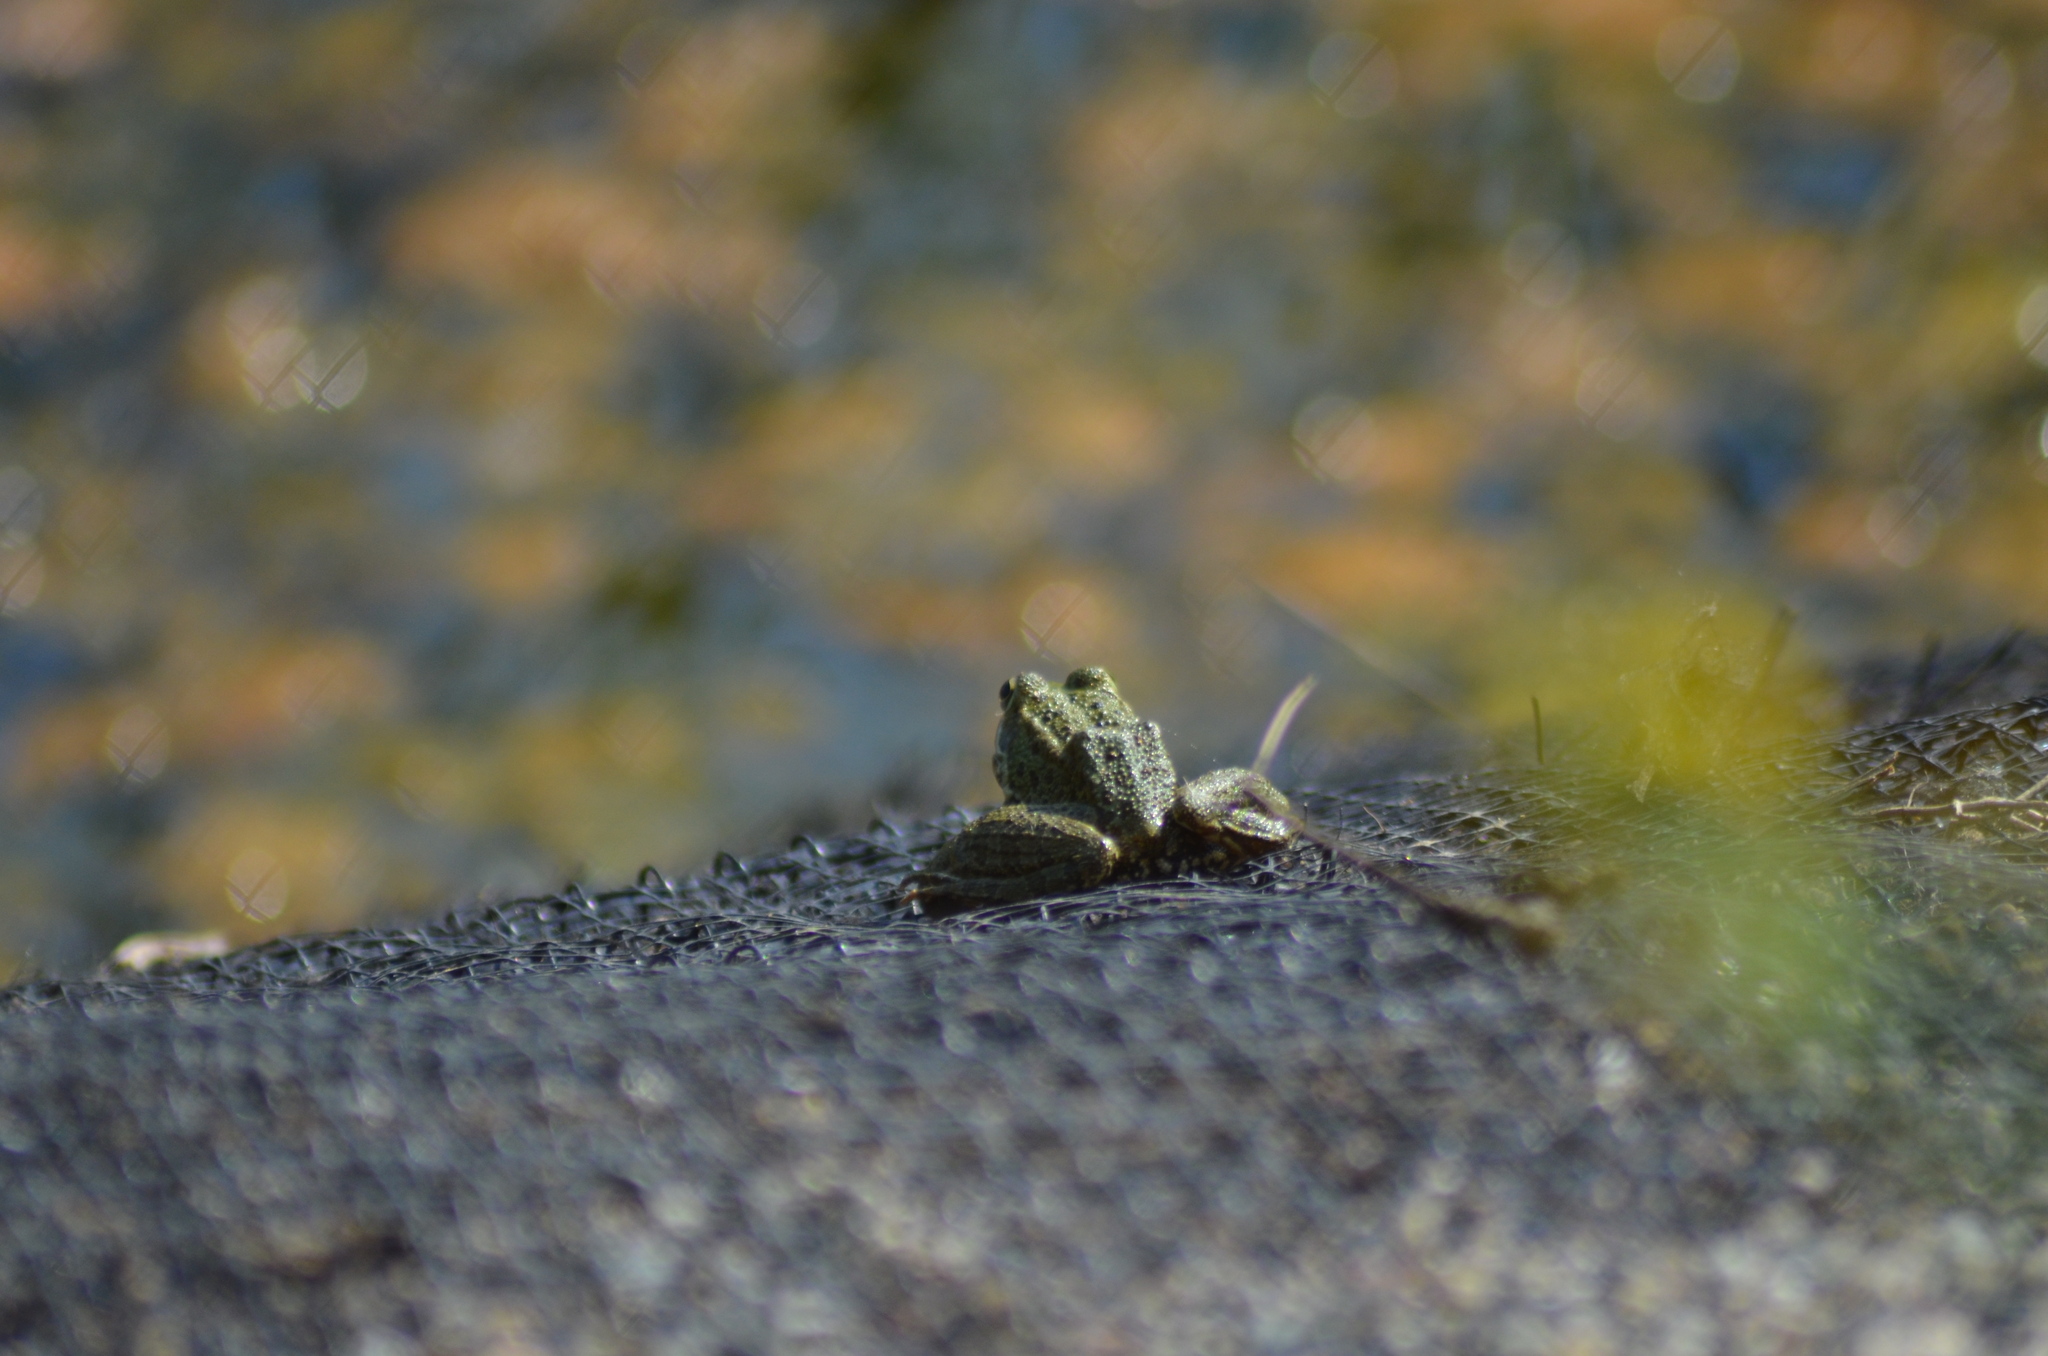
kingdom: Animalia
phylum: Chordata
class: Amphibia
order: Anura
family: Ranidae
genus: Pelophylax
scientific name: Pelophylax perezi
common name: Perez's frog
